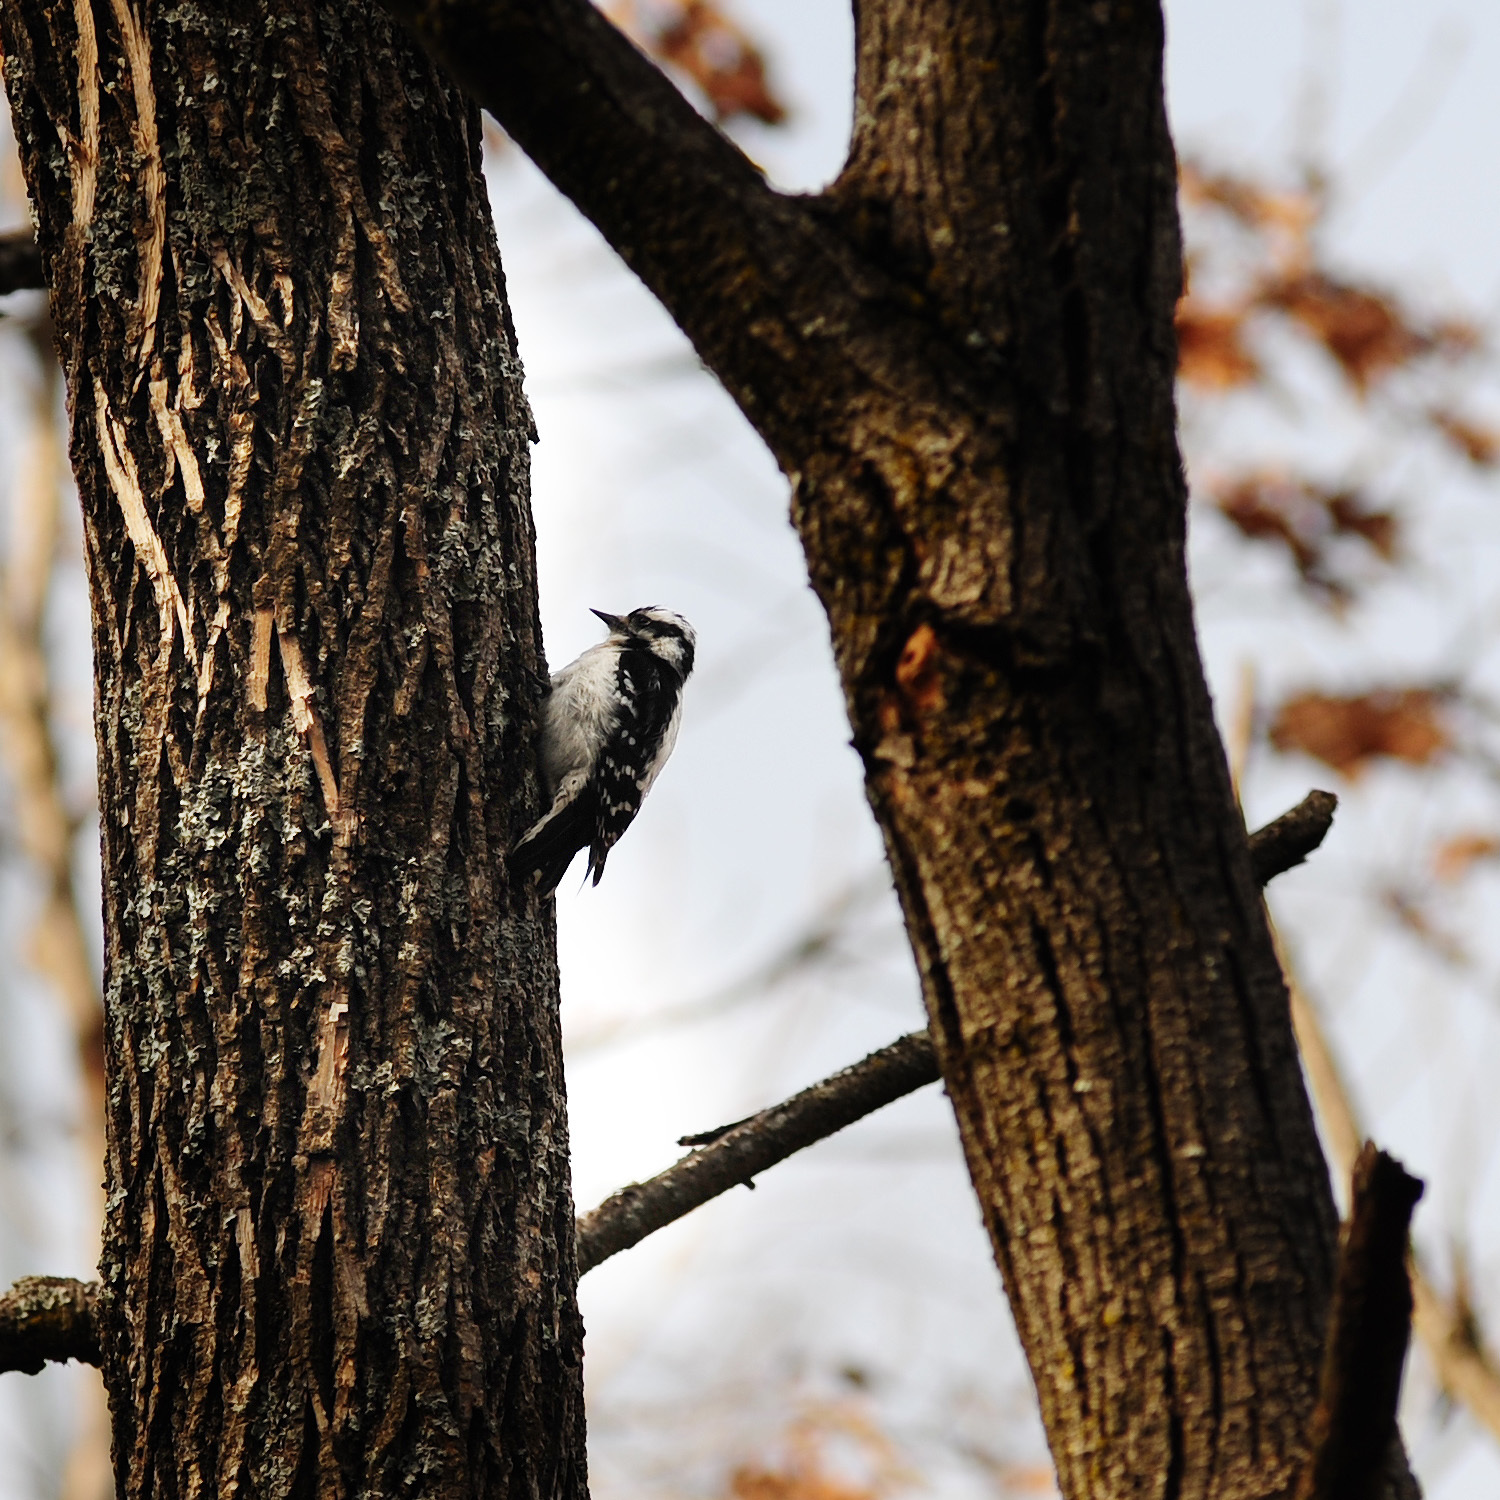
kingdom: Animalia
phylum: Chordata
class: Aves
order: Piciformes
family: Picidae
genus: Dryobates
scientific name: Dryobates pubescens
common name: Downy woodpecker
